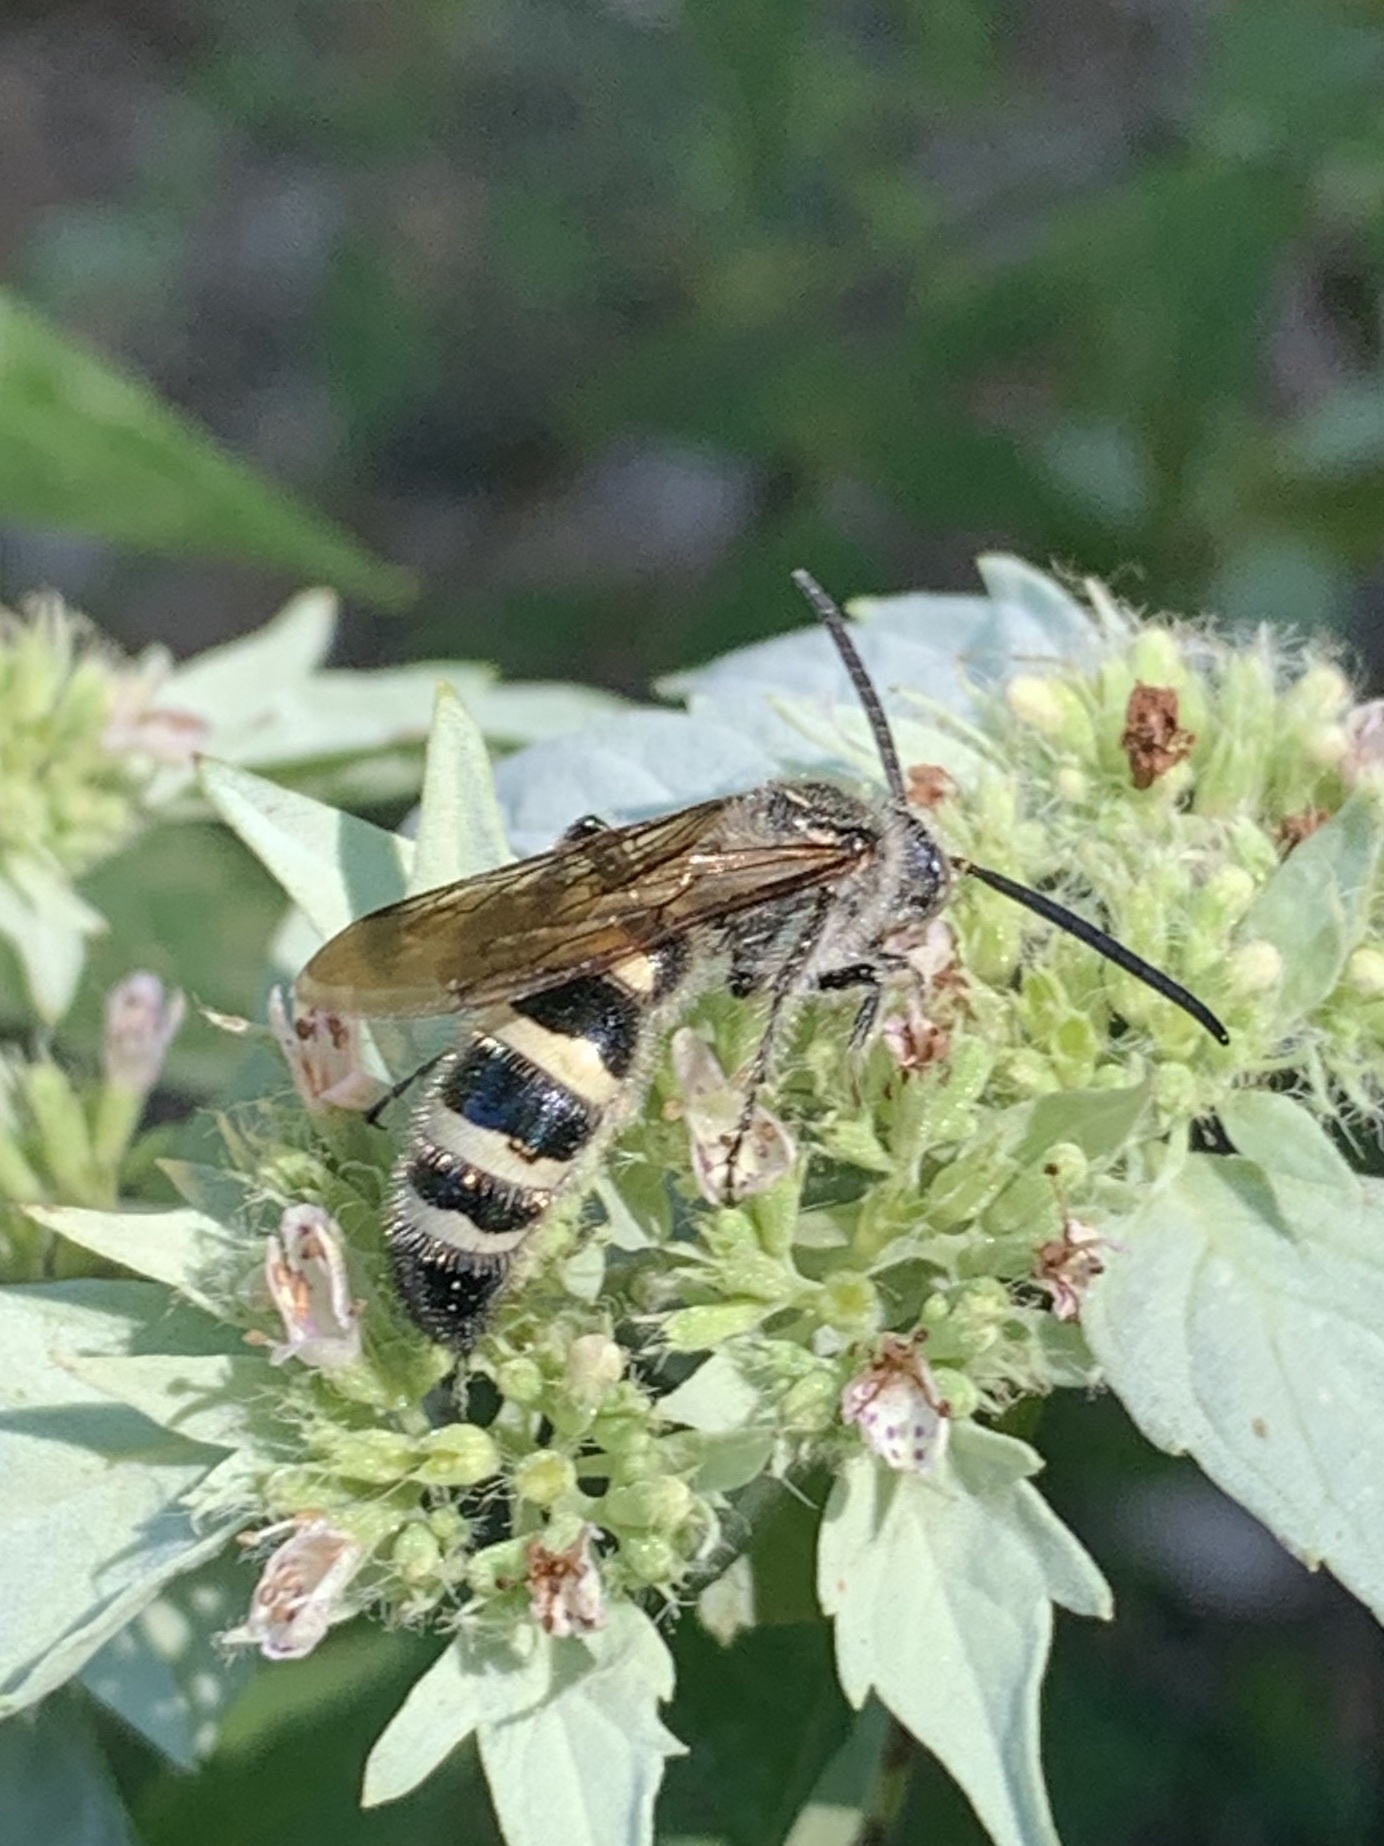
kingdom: Animalia
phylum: Arthropoda
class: Insecta
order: Hymenoptera
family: Scoliidae
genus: Dielis
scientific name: Dielis
